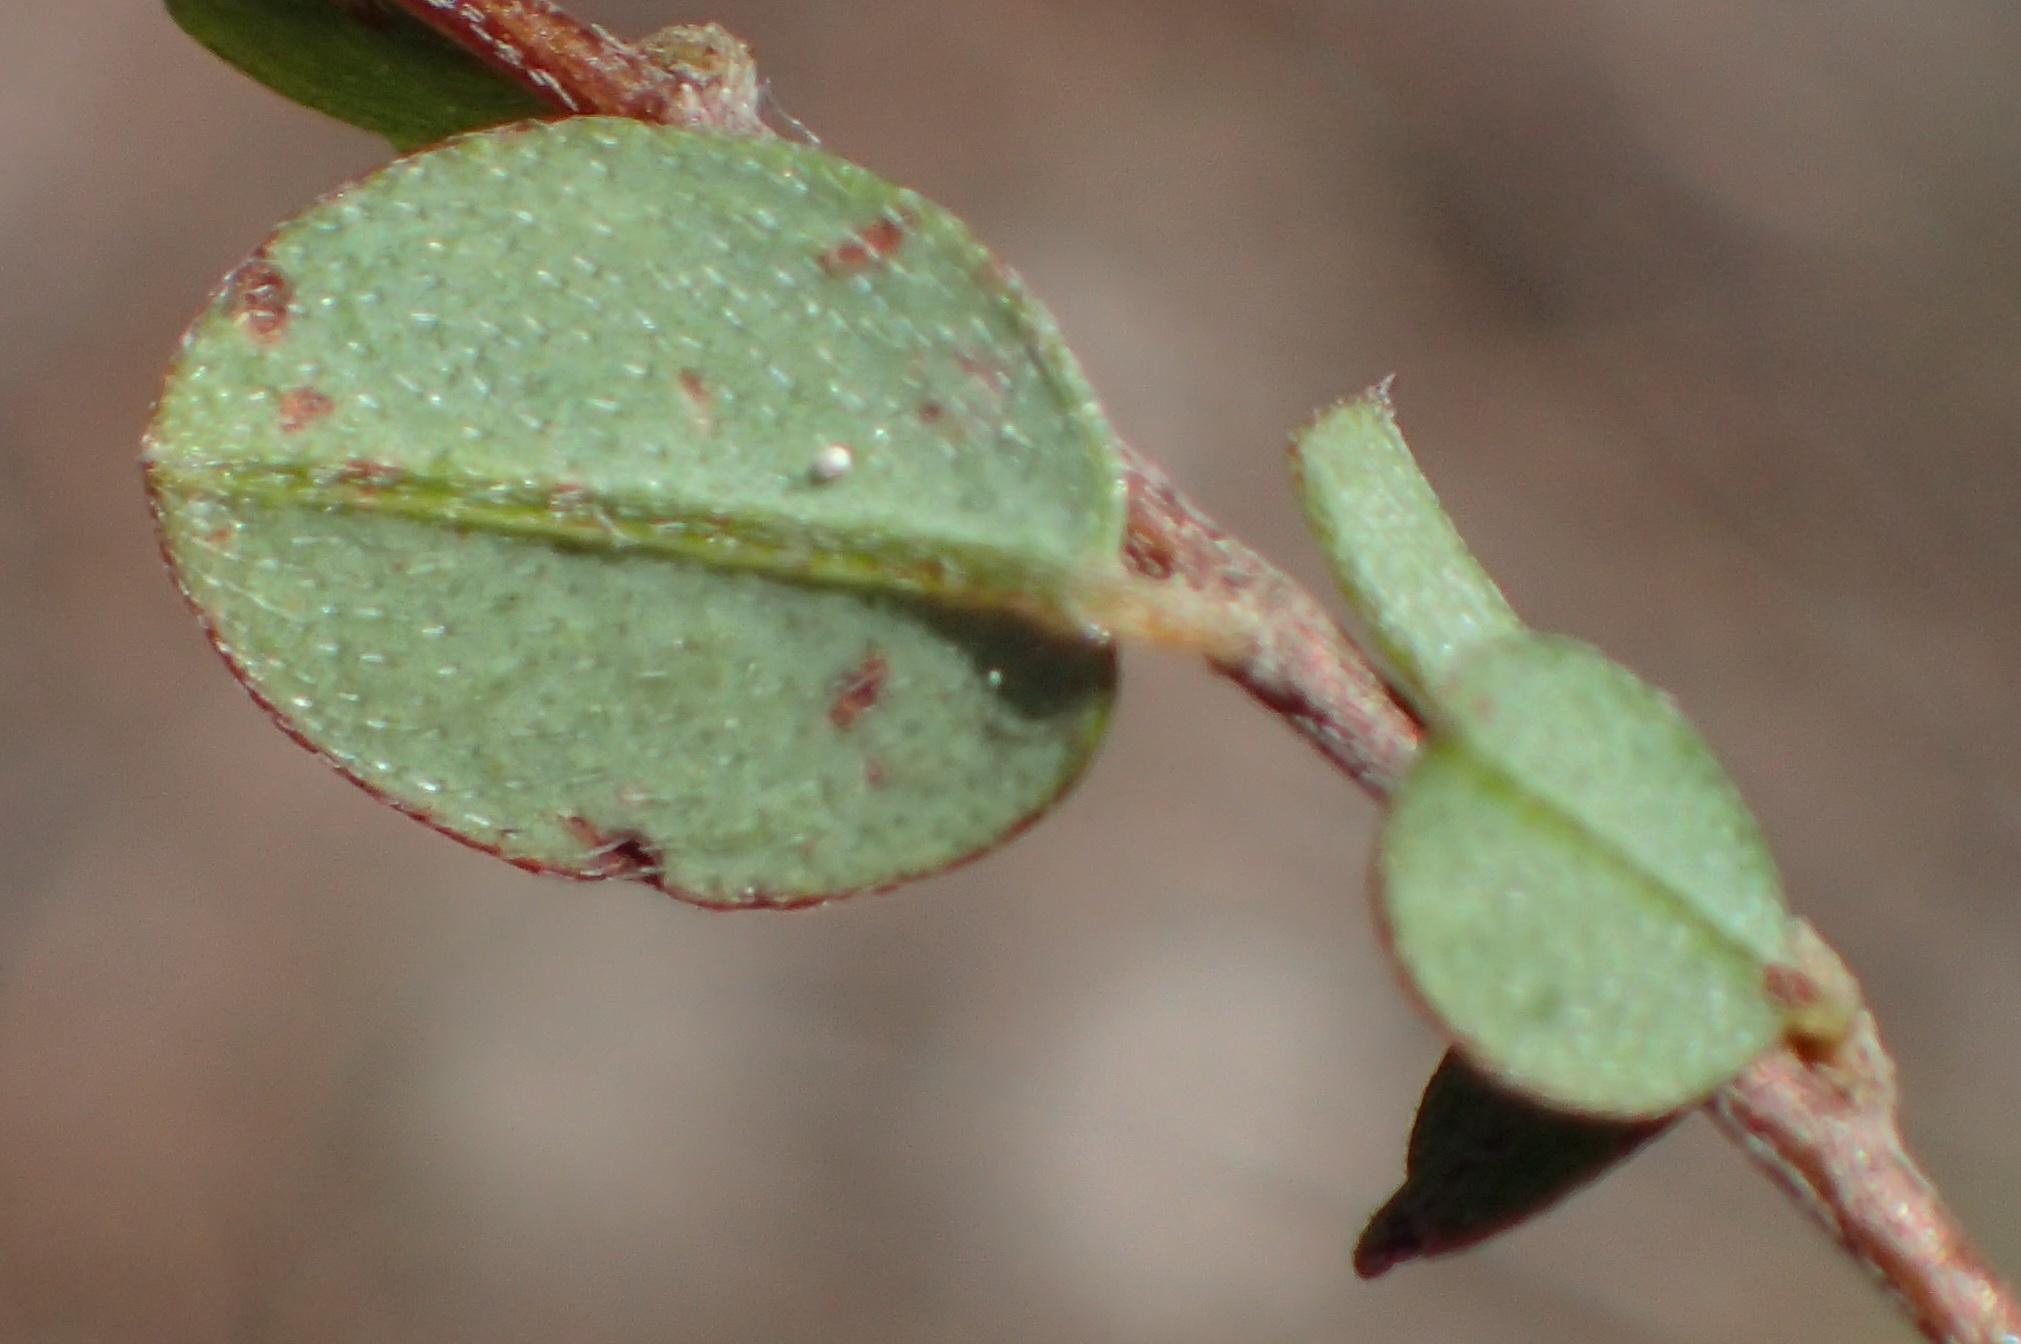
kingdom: Plantae
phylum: Tracheophyta
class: Magnoliopsida
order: Fabales
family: Fabaceae
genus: Indigofera
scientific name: Indigofera sarmentosa
